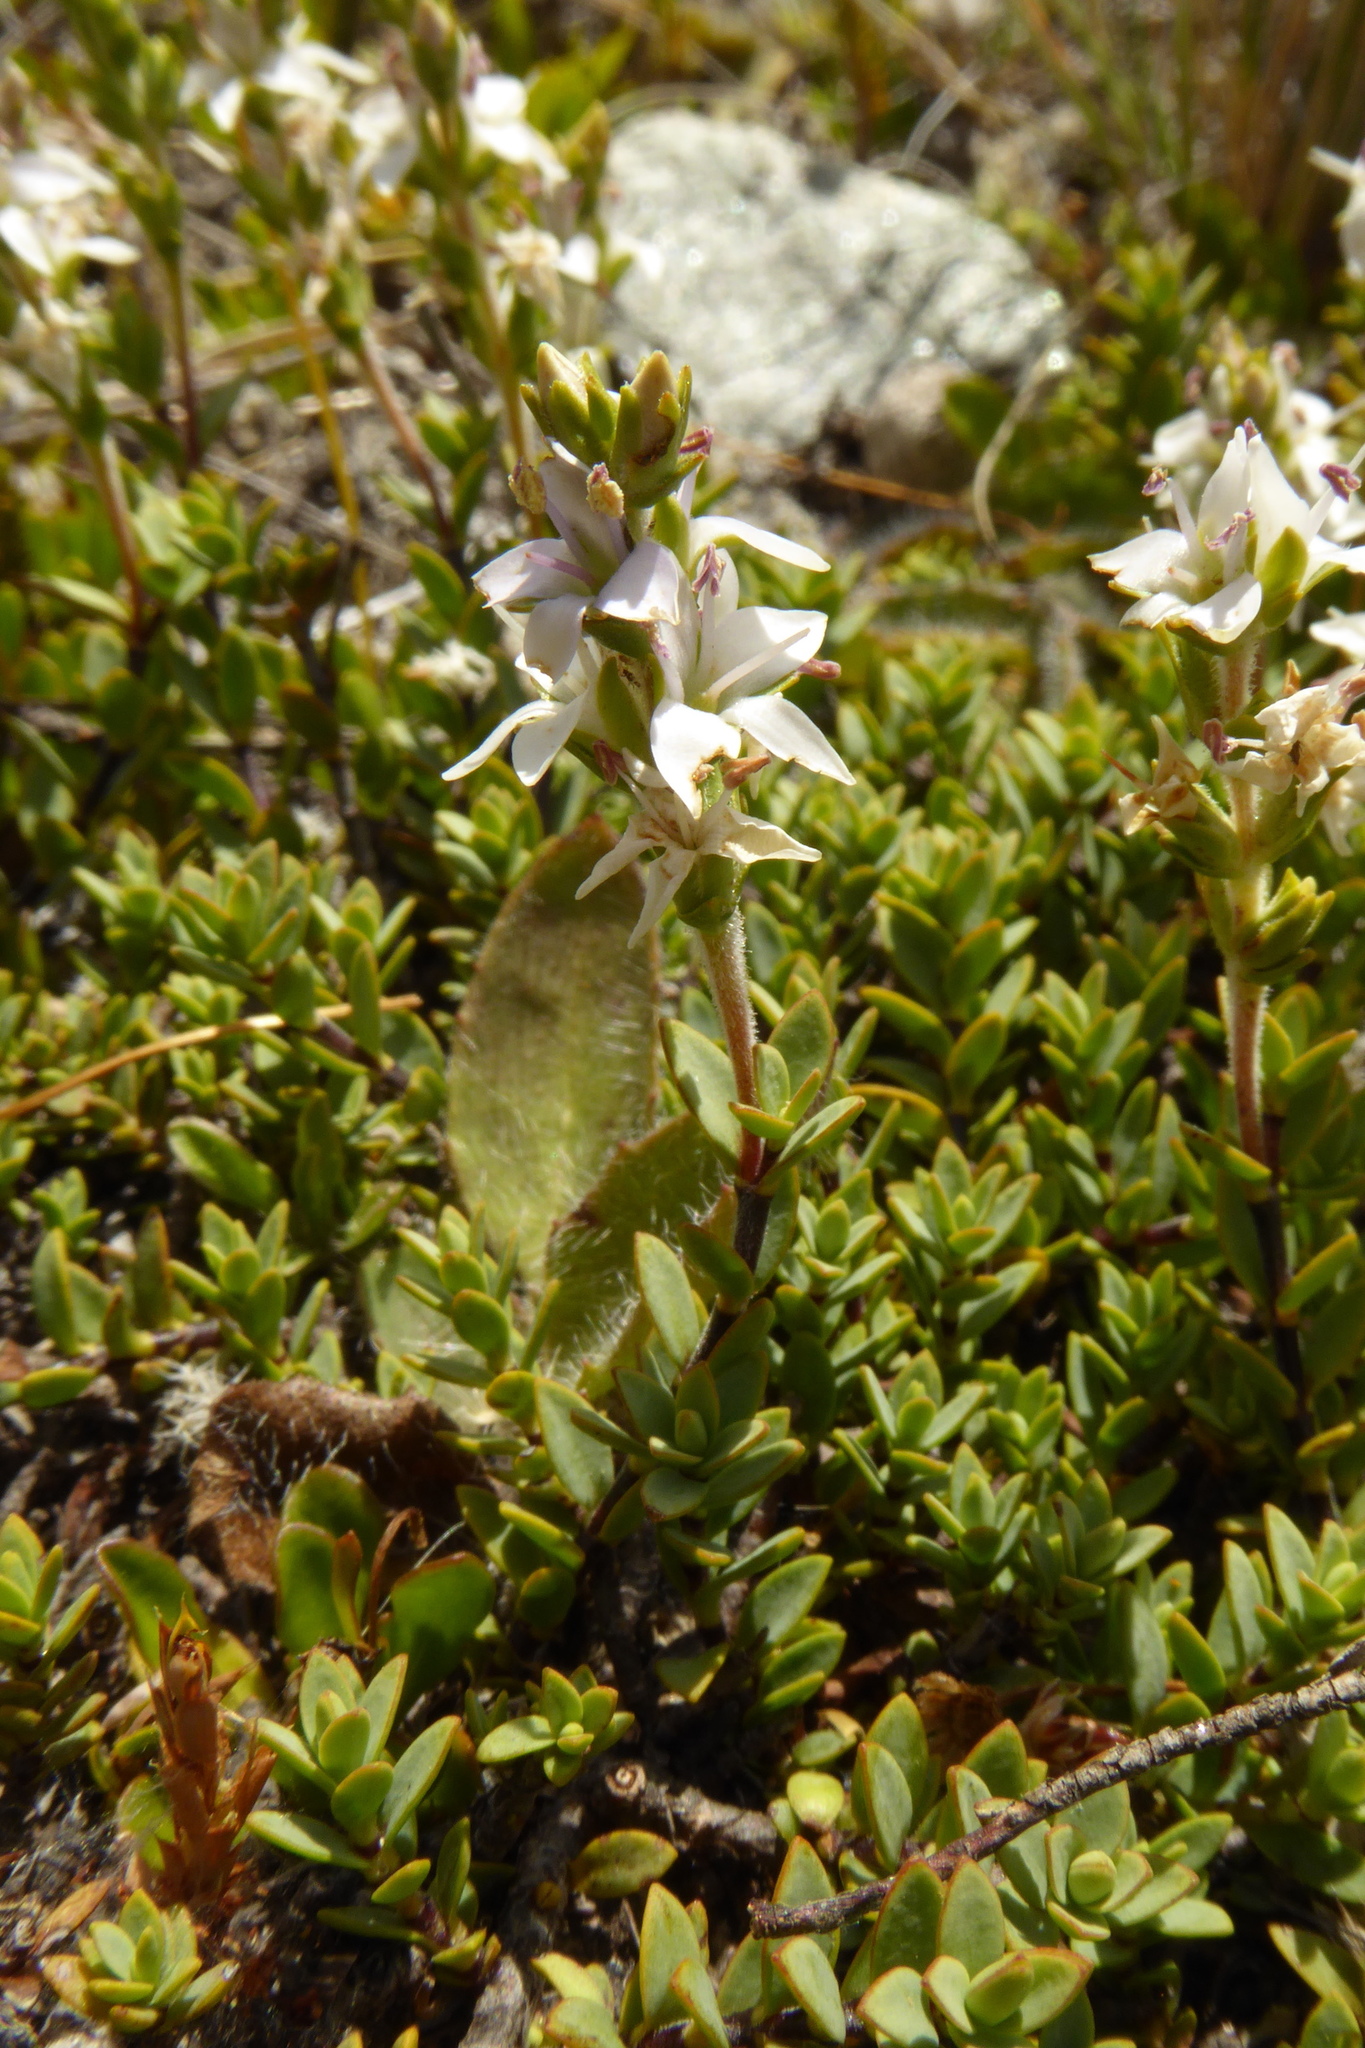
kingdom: Plantae
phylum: Tracheophyta
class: Magnoliopsida
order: Lamiales
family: Plantaginaceae
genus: Veronica
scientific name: Veronica pimeleoides
